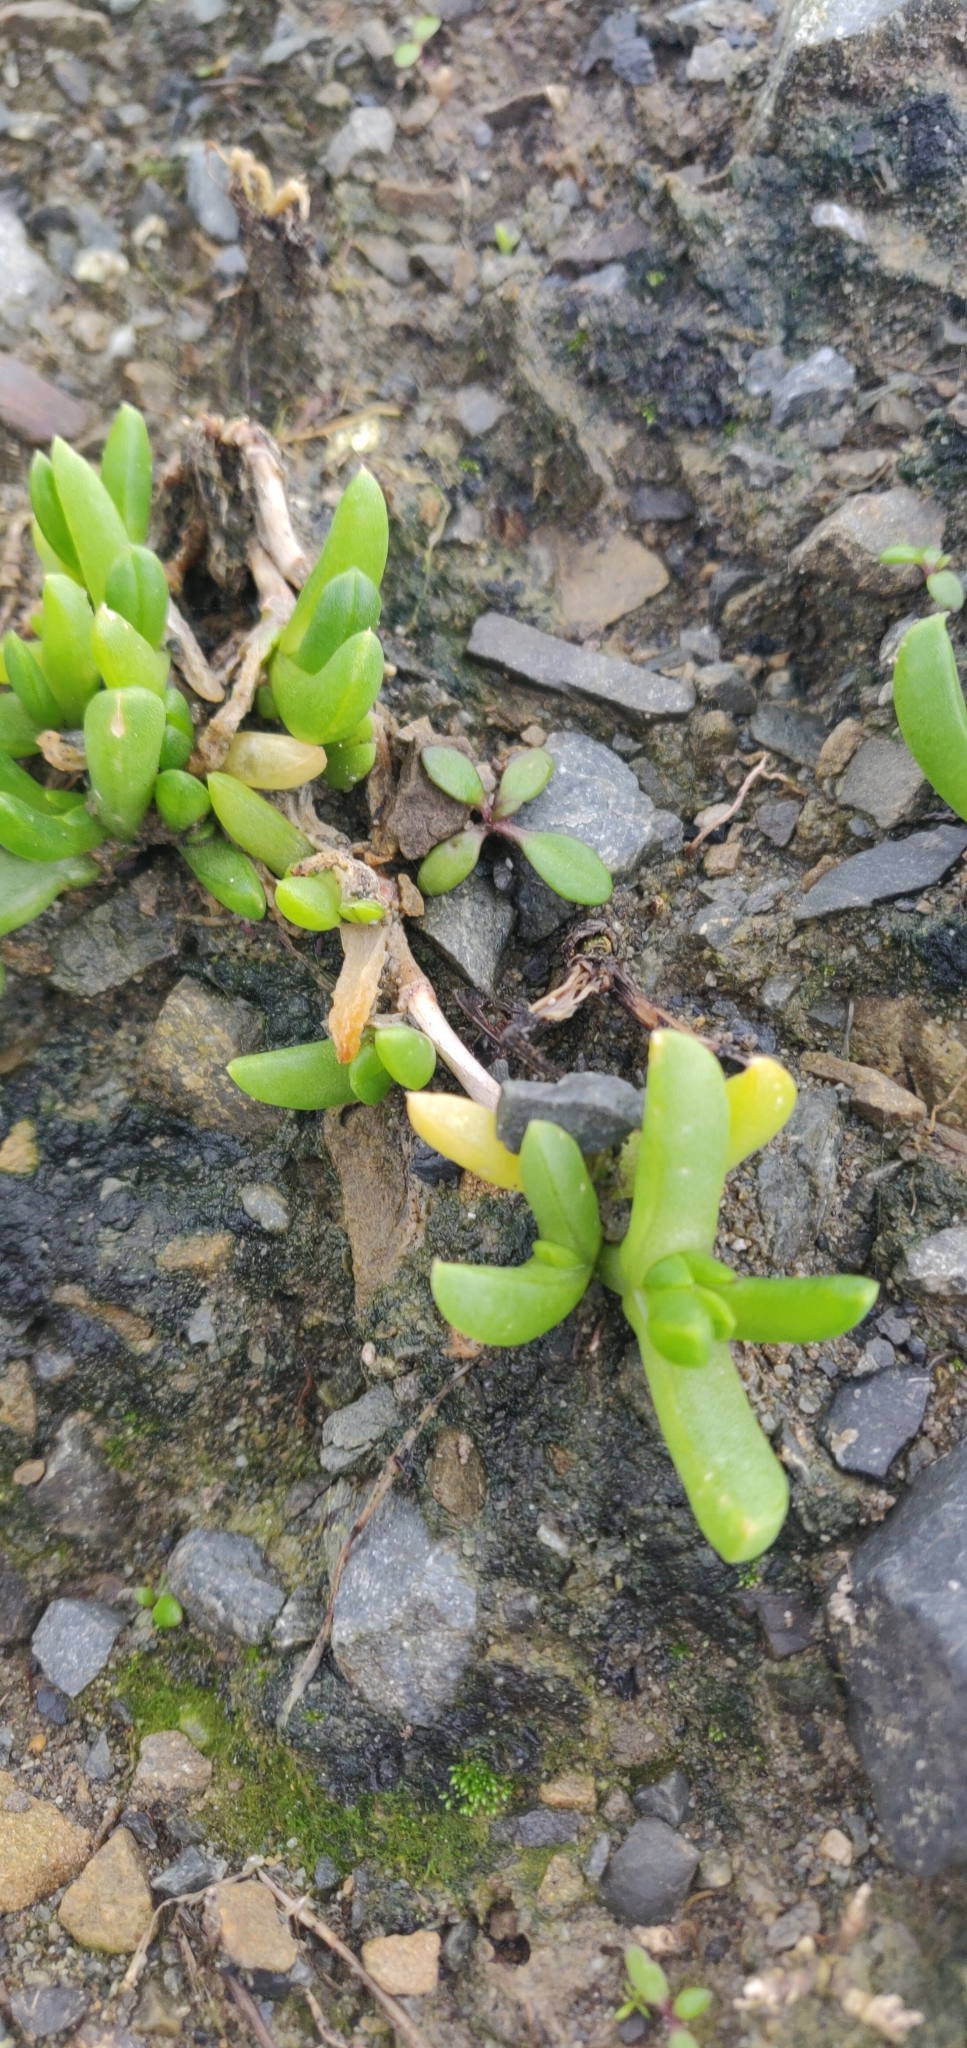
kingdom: Plantae
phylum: Tracheophyta
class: Magnoliopsida
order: Caryophyllales
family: Aizoaceae
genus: Disphyma
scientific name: Disphyma australe
